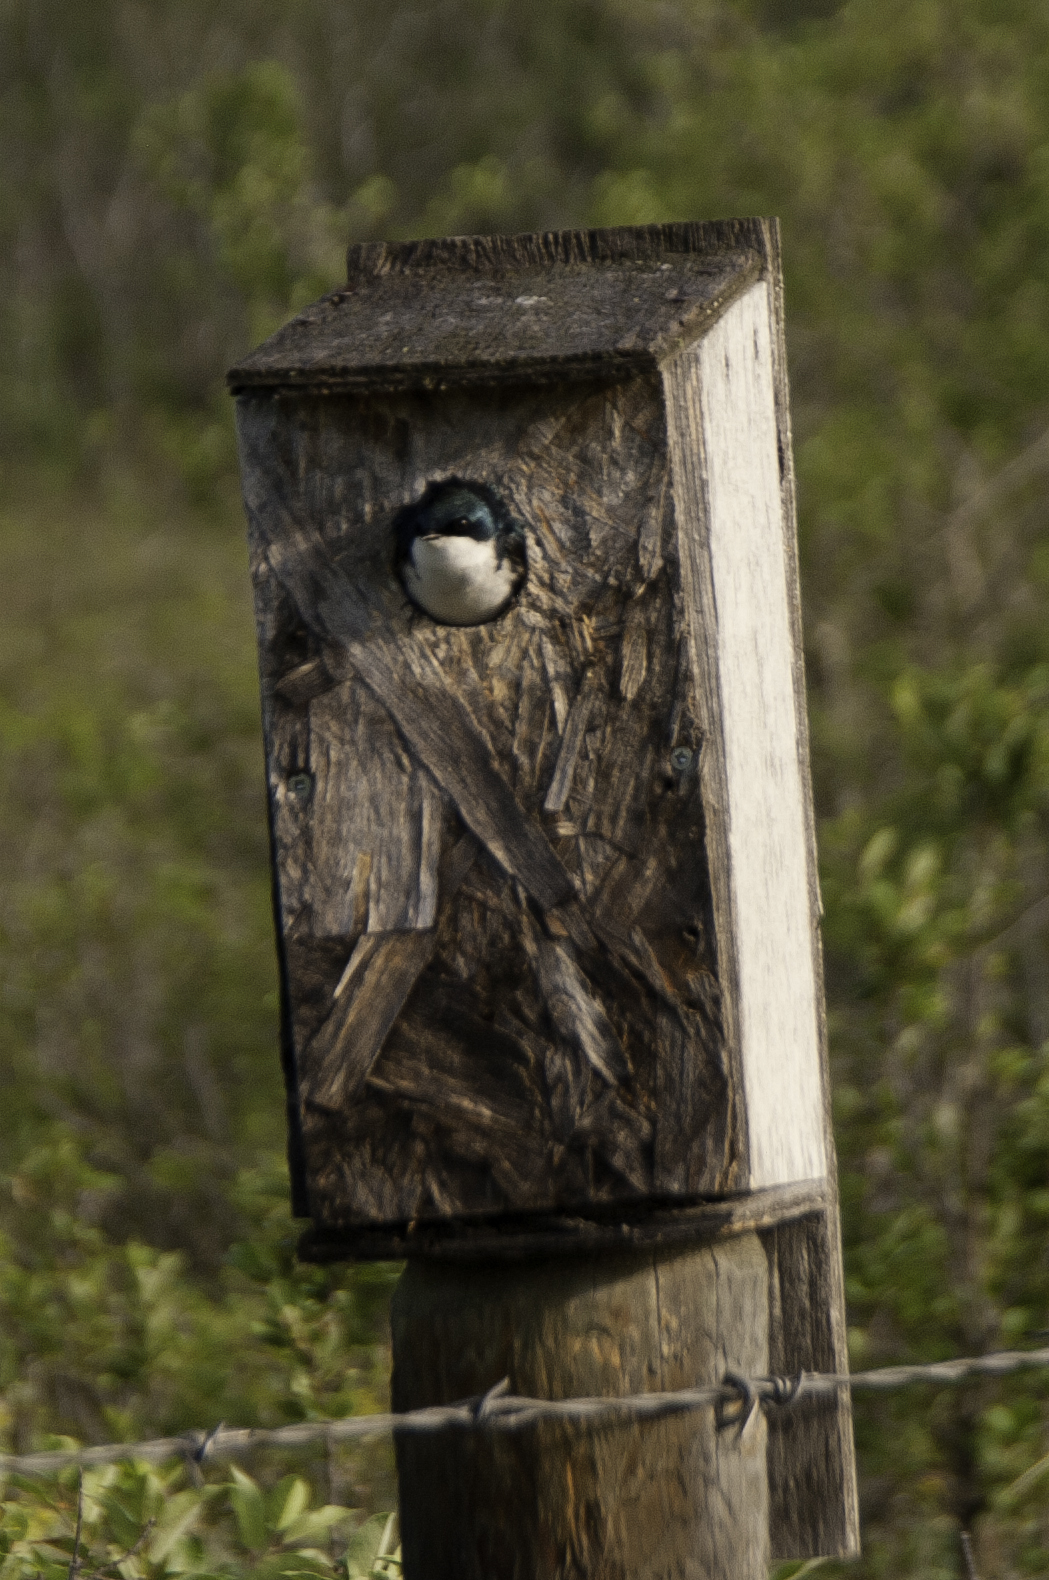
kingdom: Animalia
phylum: Chordata
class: Aves
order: Passeriformes
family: Hirundinidae
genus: Tachycineta
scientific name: Tachycineta bicolor
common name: Tree swallow
